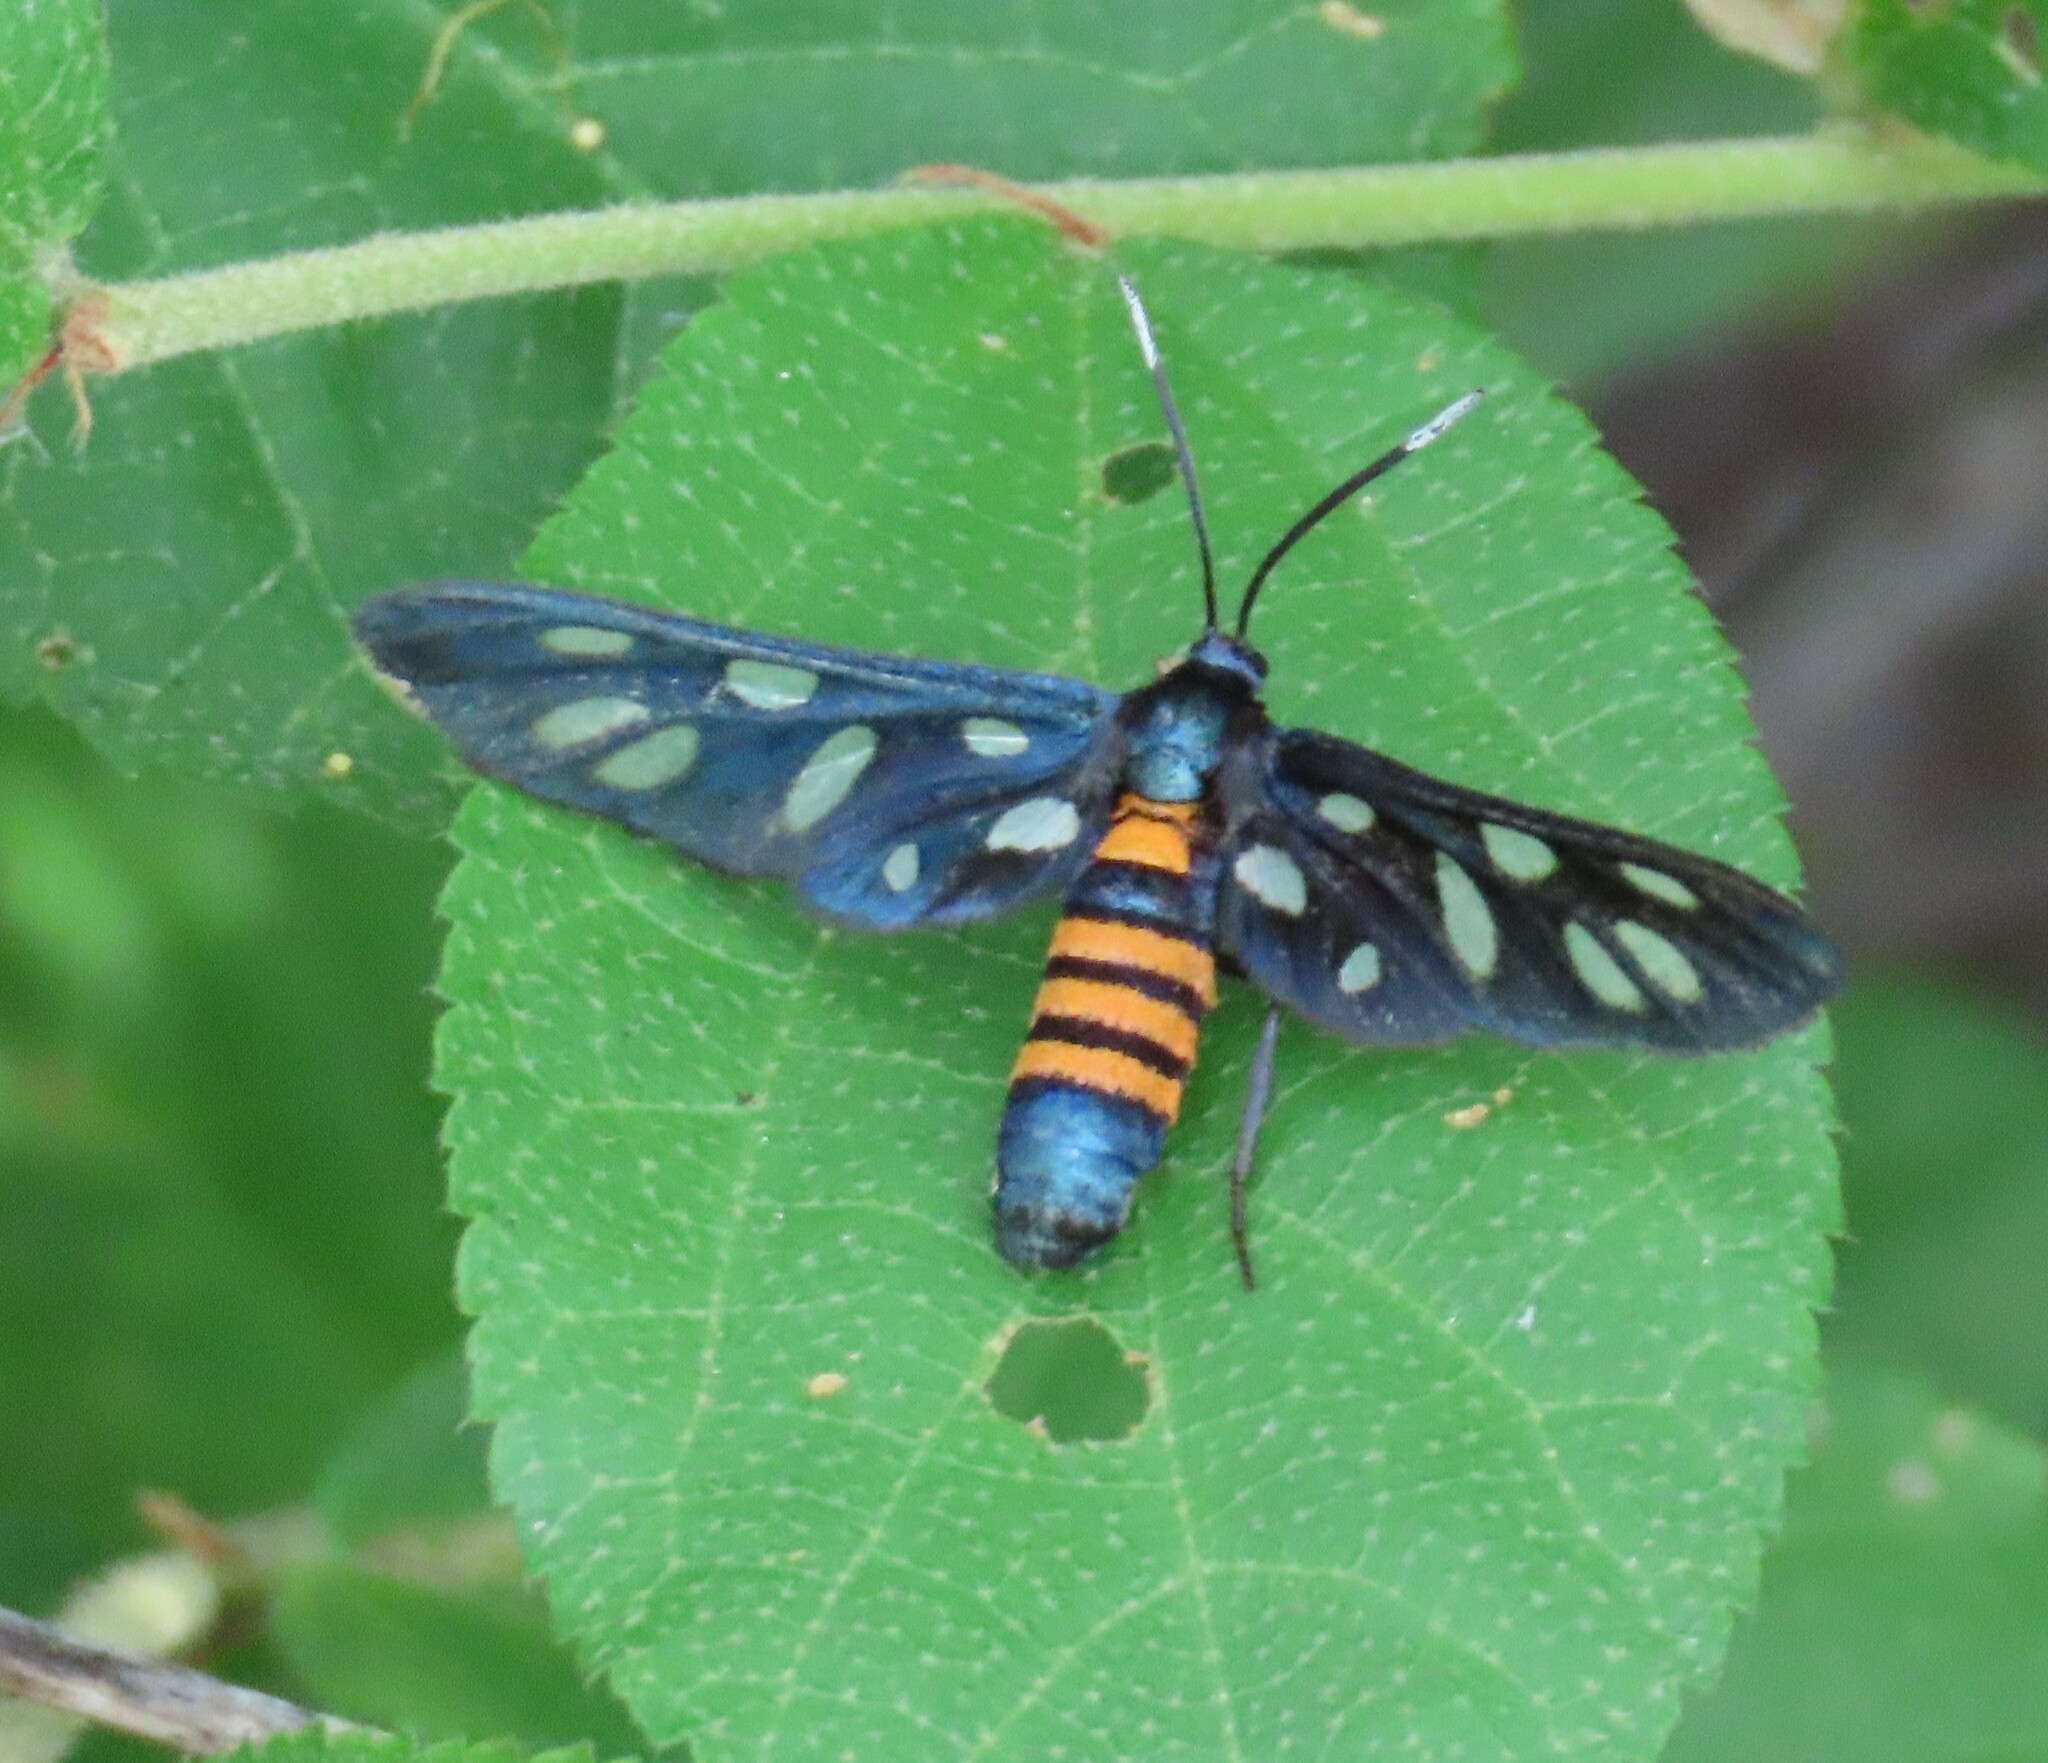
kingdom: Animalia
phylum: Arthropoda
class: Insecta
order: Lepidoptera
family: Erebidae
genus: Amata
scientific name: Amata damarensis
